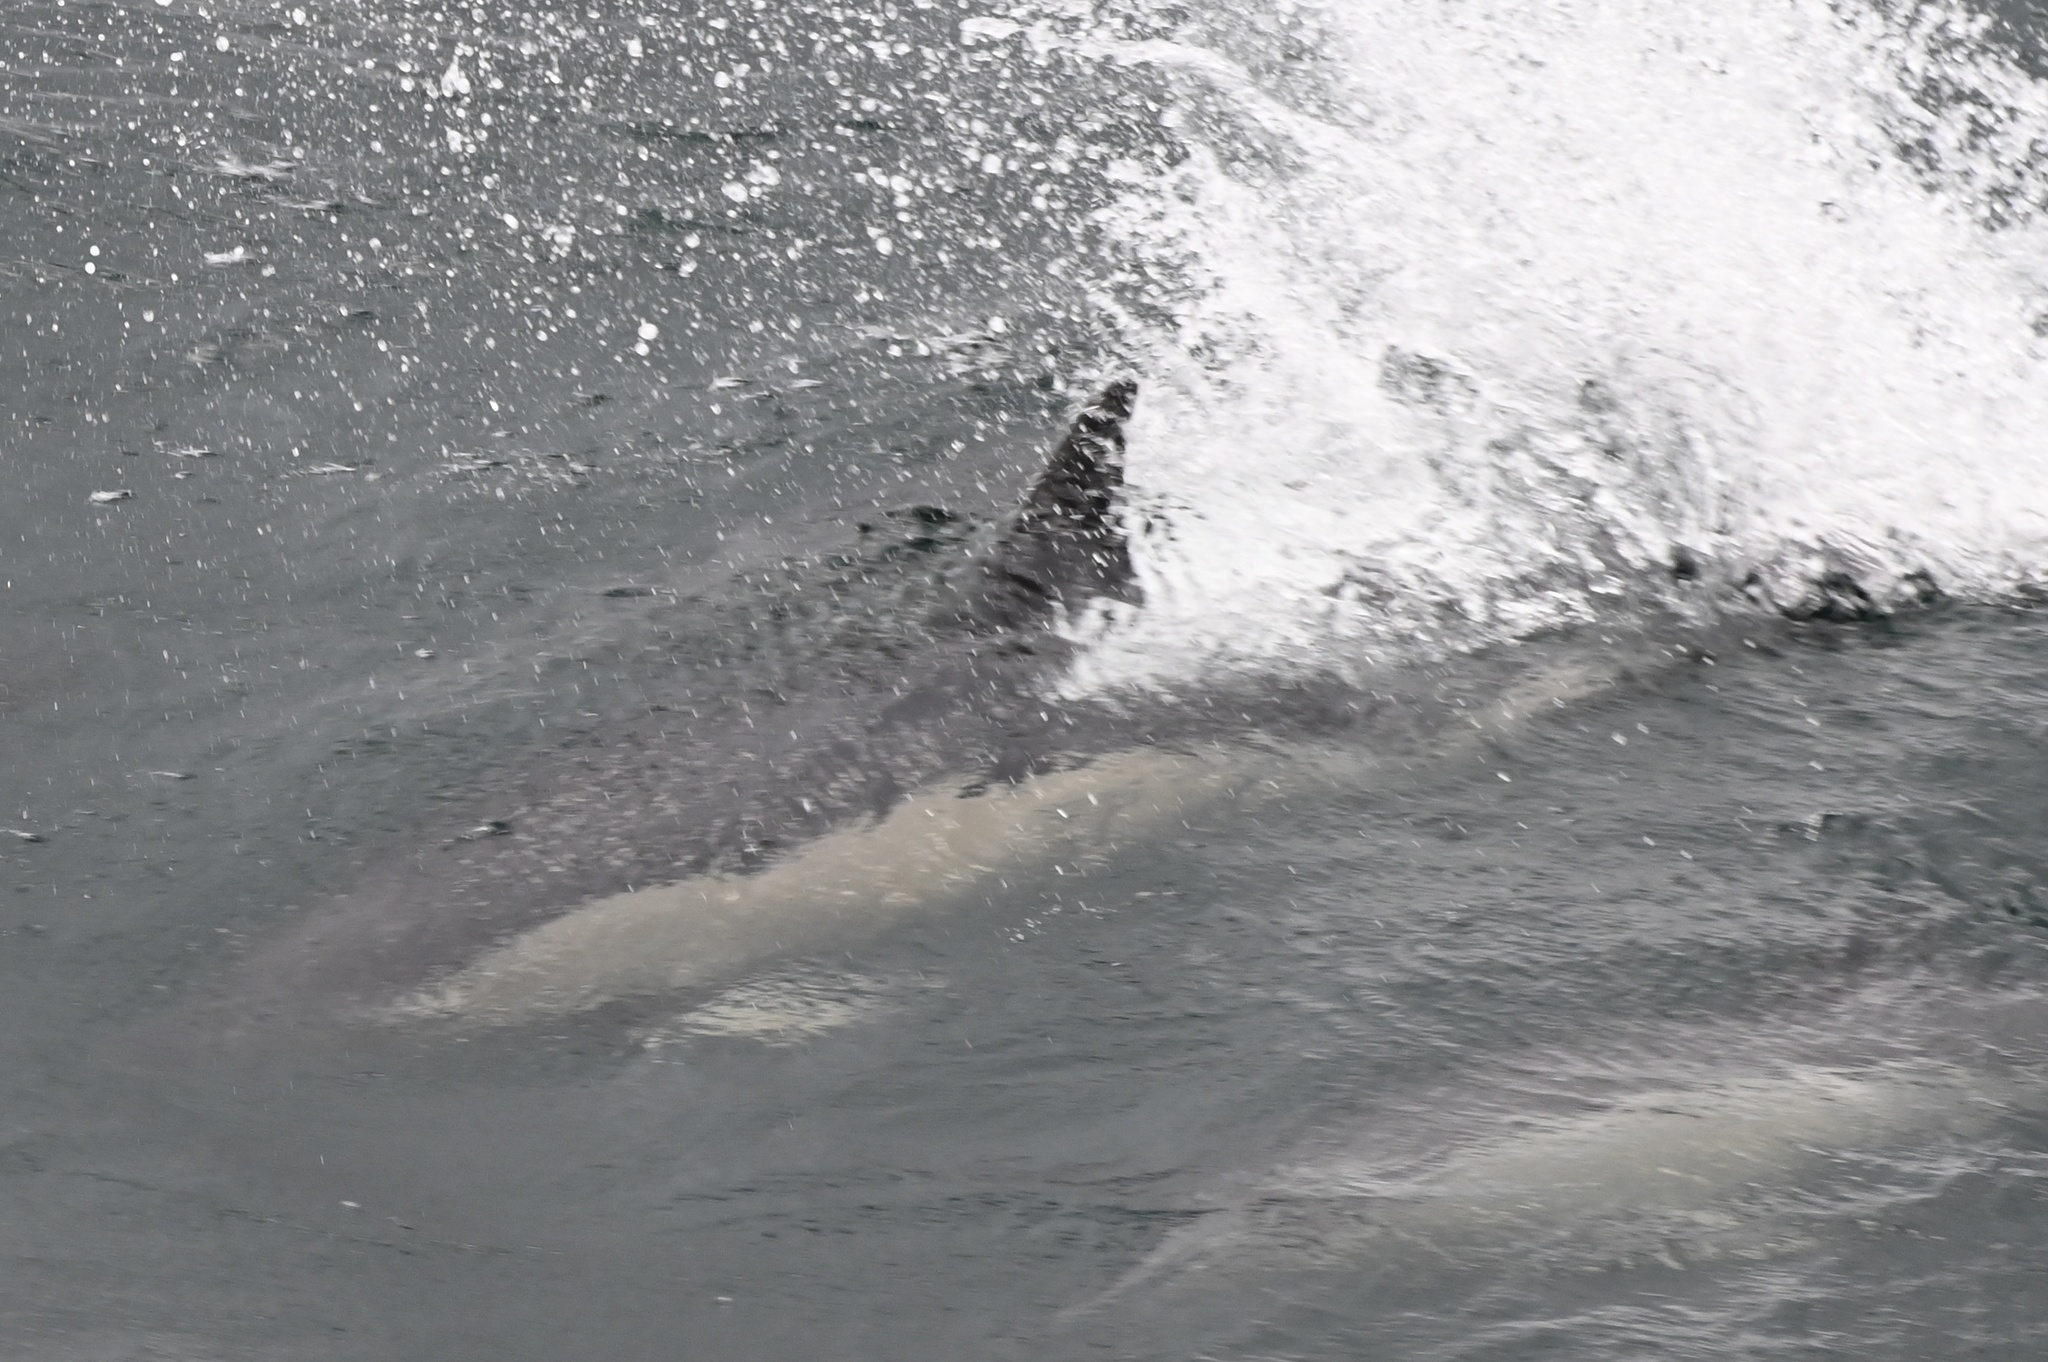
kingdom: Animalia
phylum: Chordata
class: Mammalia
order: Cetacea
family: Delphinidae
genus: Delphinus
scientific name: Delphinus delphis
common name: Common dolphin
